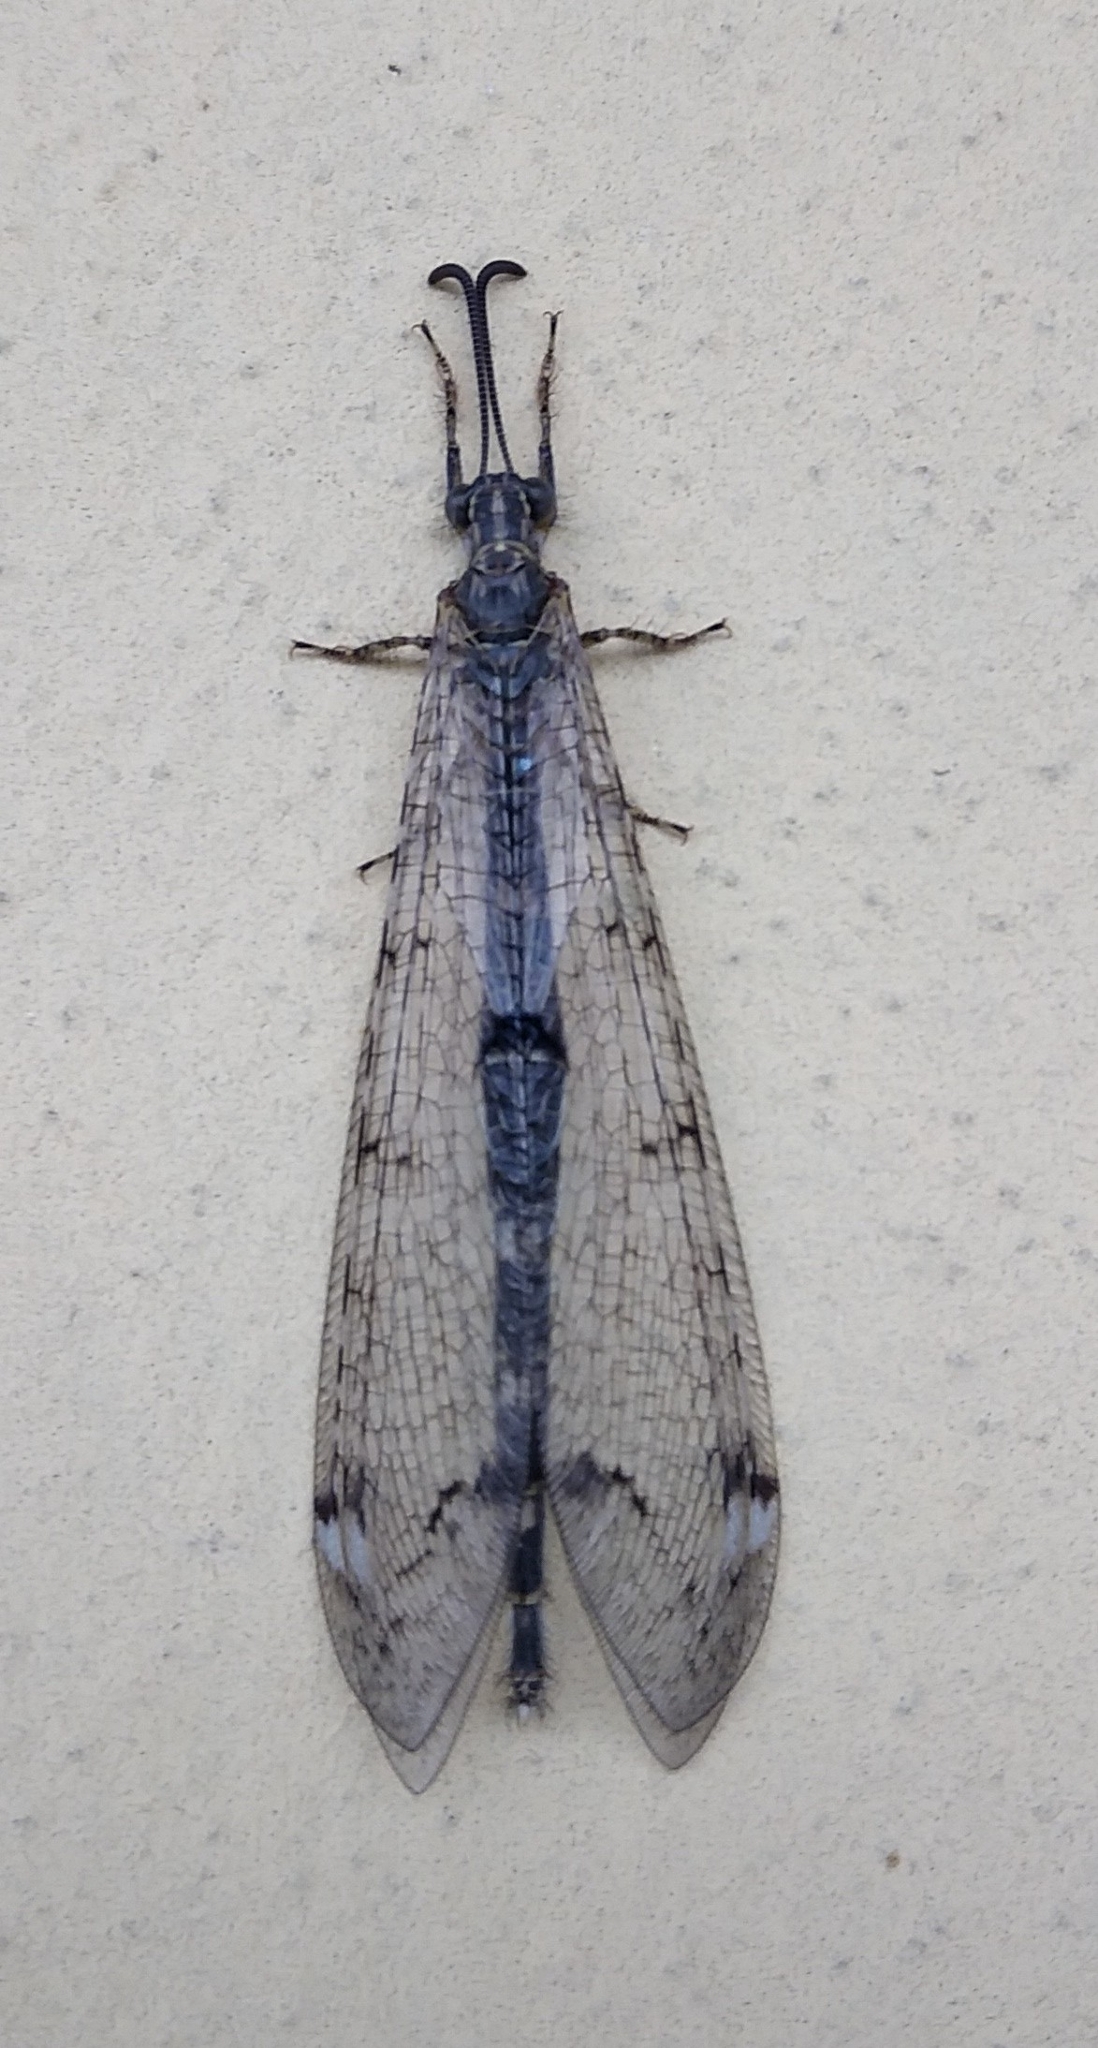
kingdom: Animalia
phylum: Arthropoda
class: Insecta
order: Neuroptera
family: Myrmeleontidae
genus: Distoleon
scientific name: Distoleon tetragrammicus
